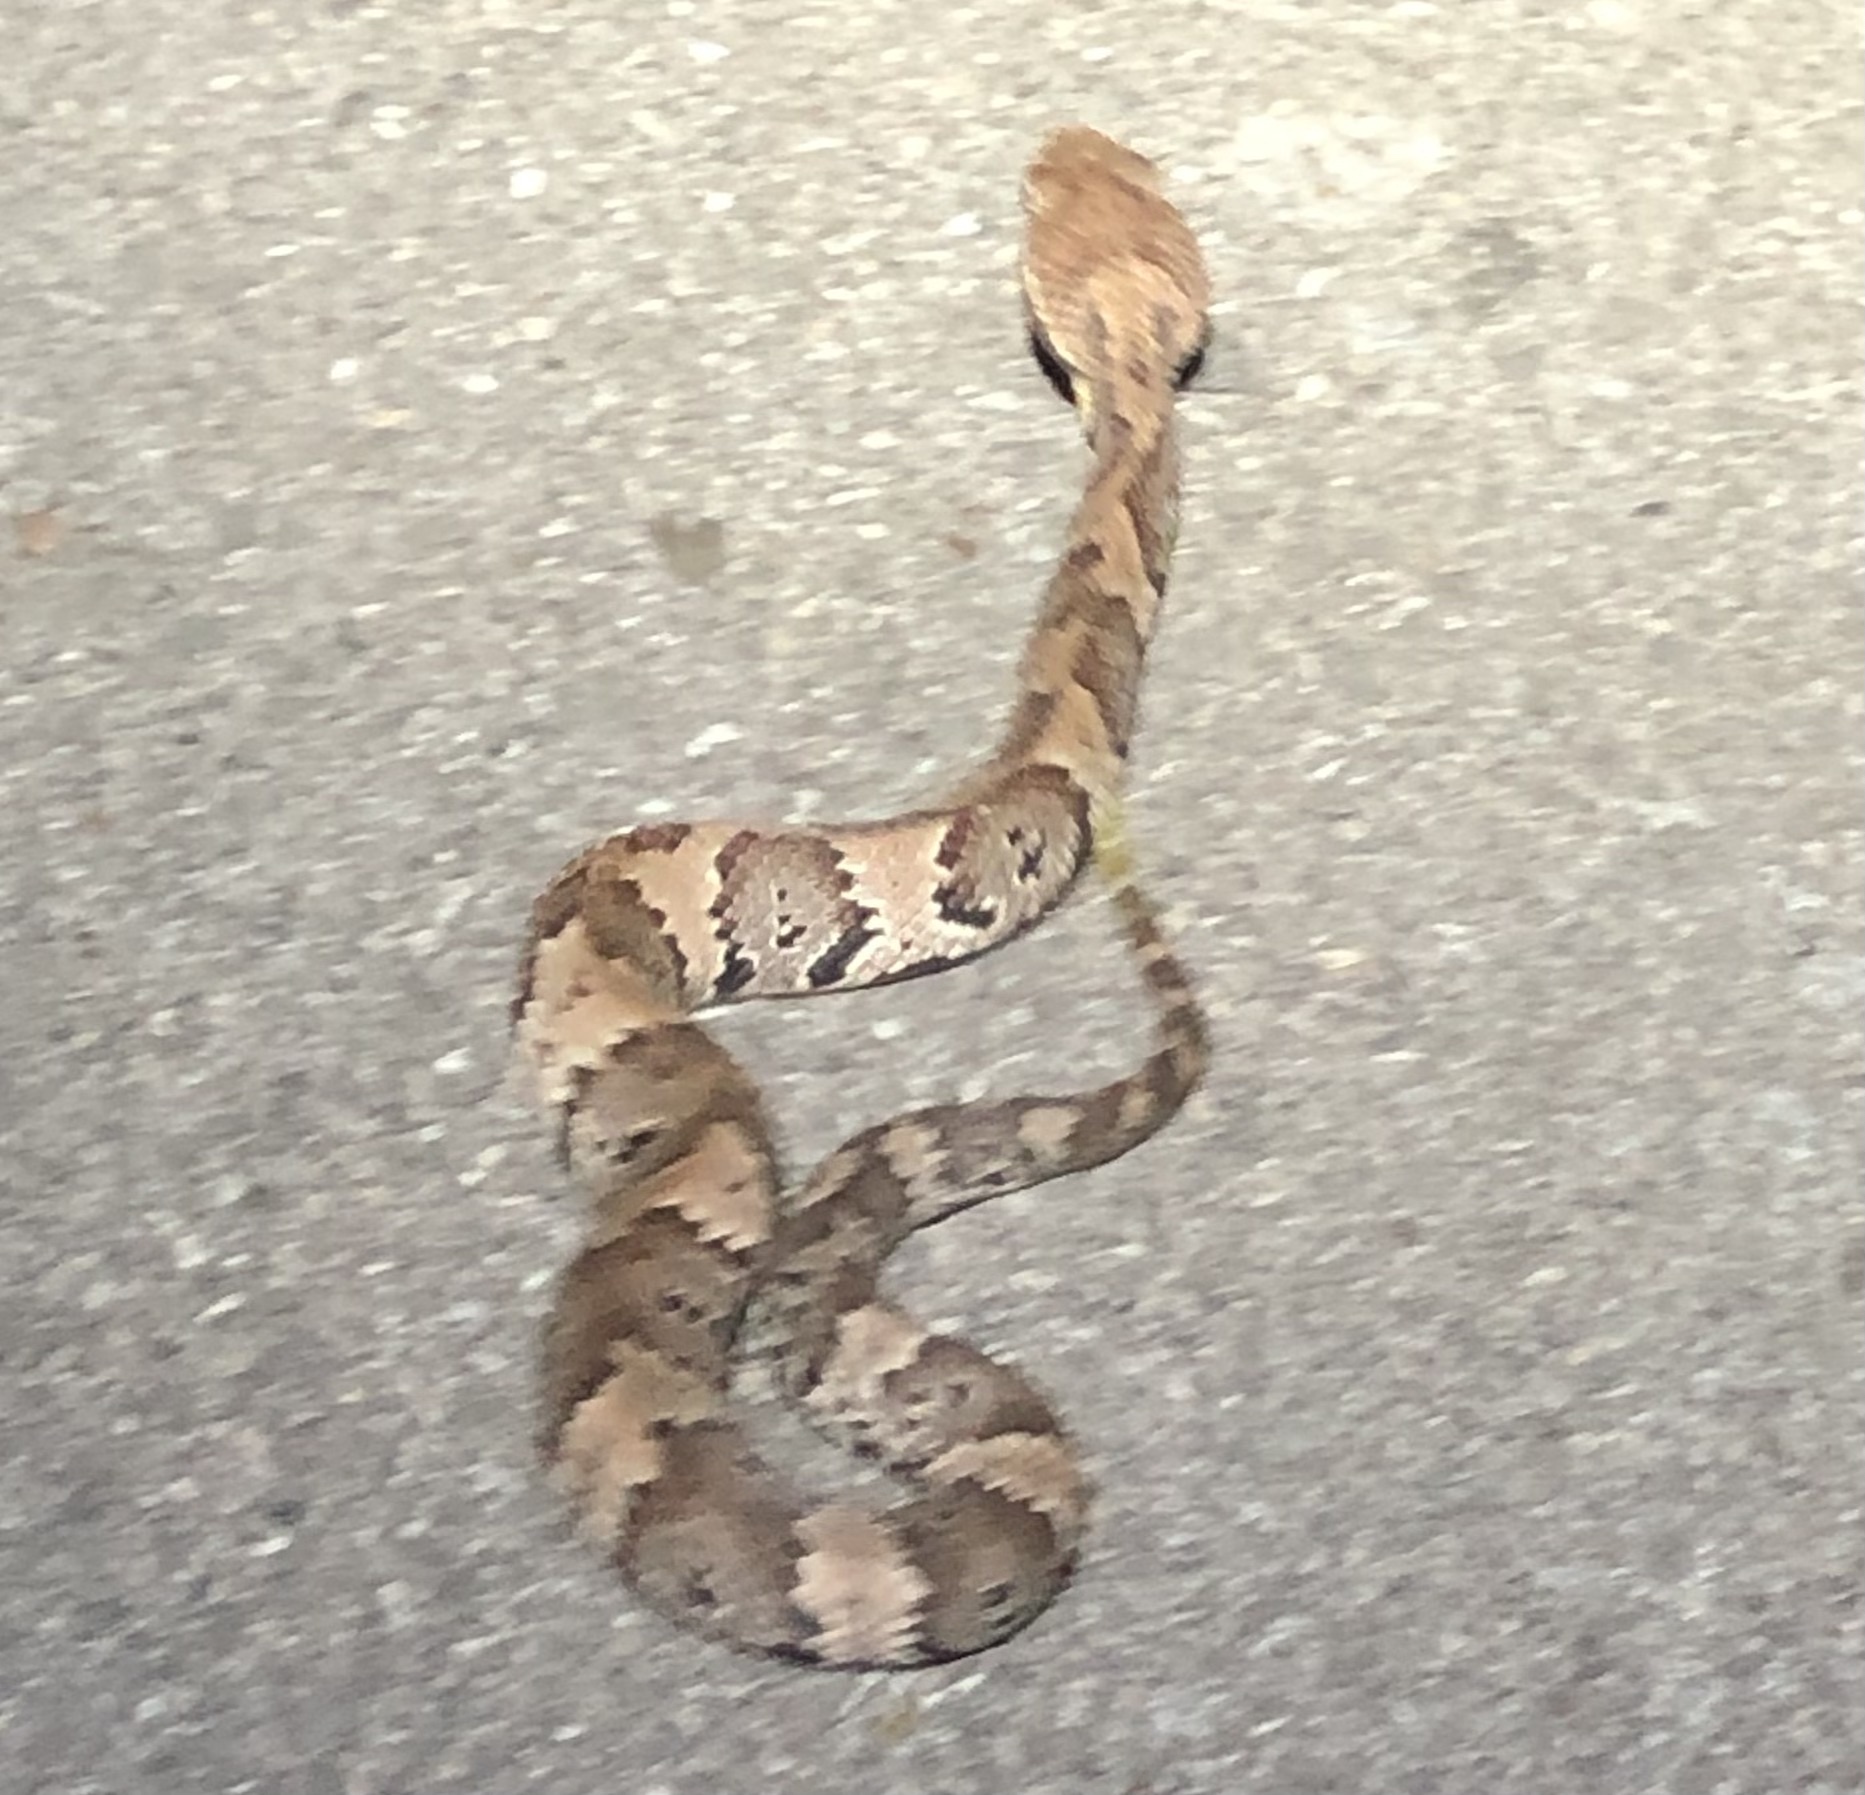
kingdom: Animalia
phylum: Chordata
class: Squamata
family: Viperidae
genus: Agkistrodon
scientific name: Agkistrodon piscivorus
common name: Cottonmouth
